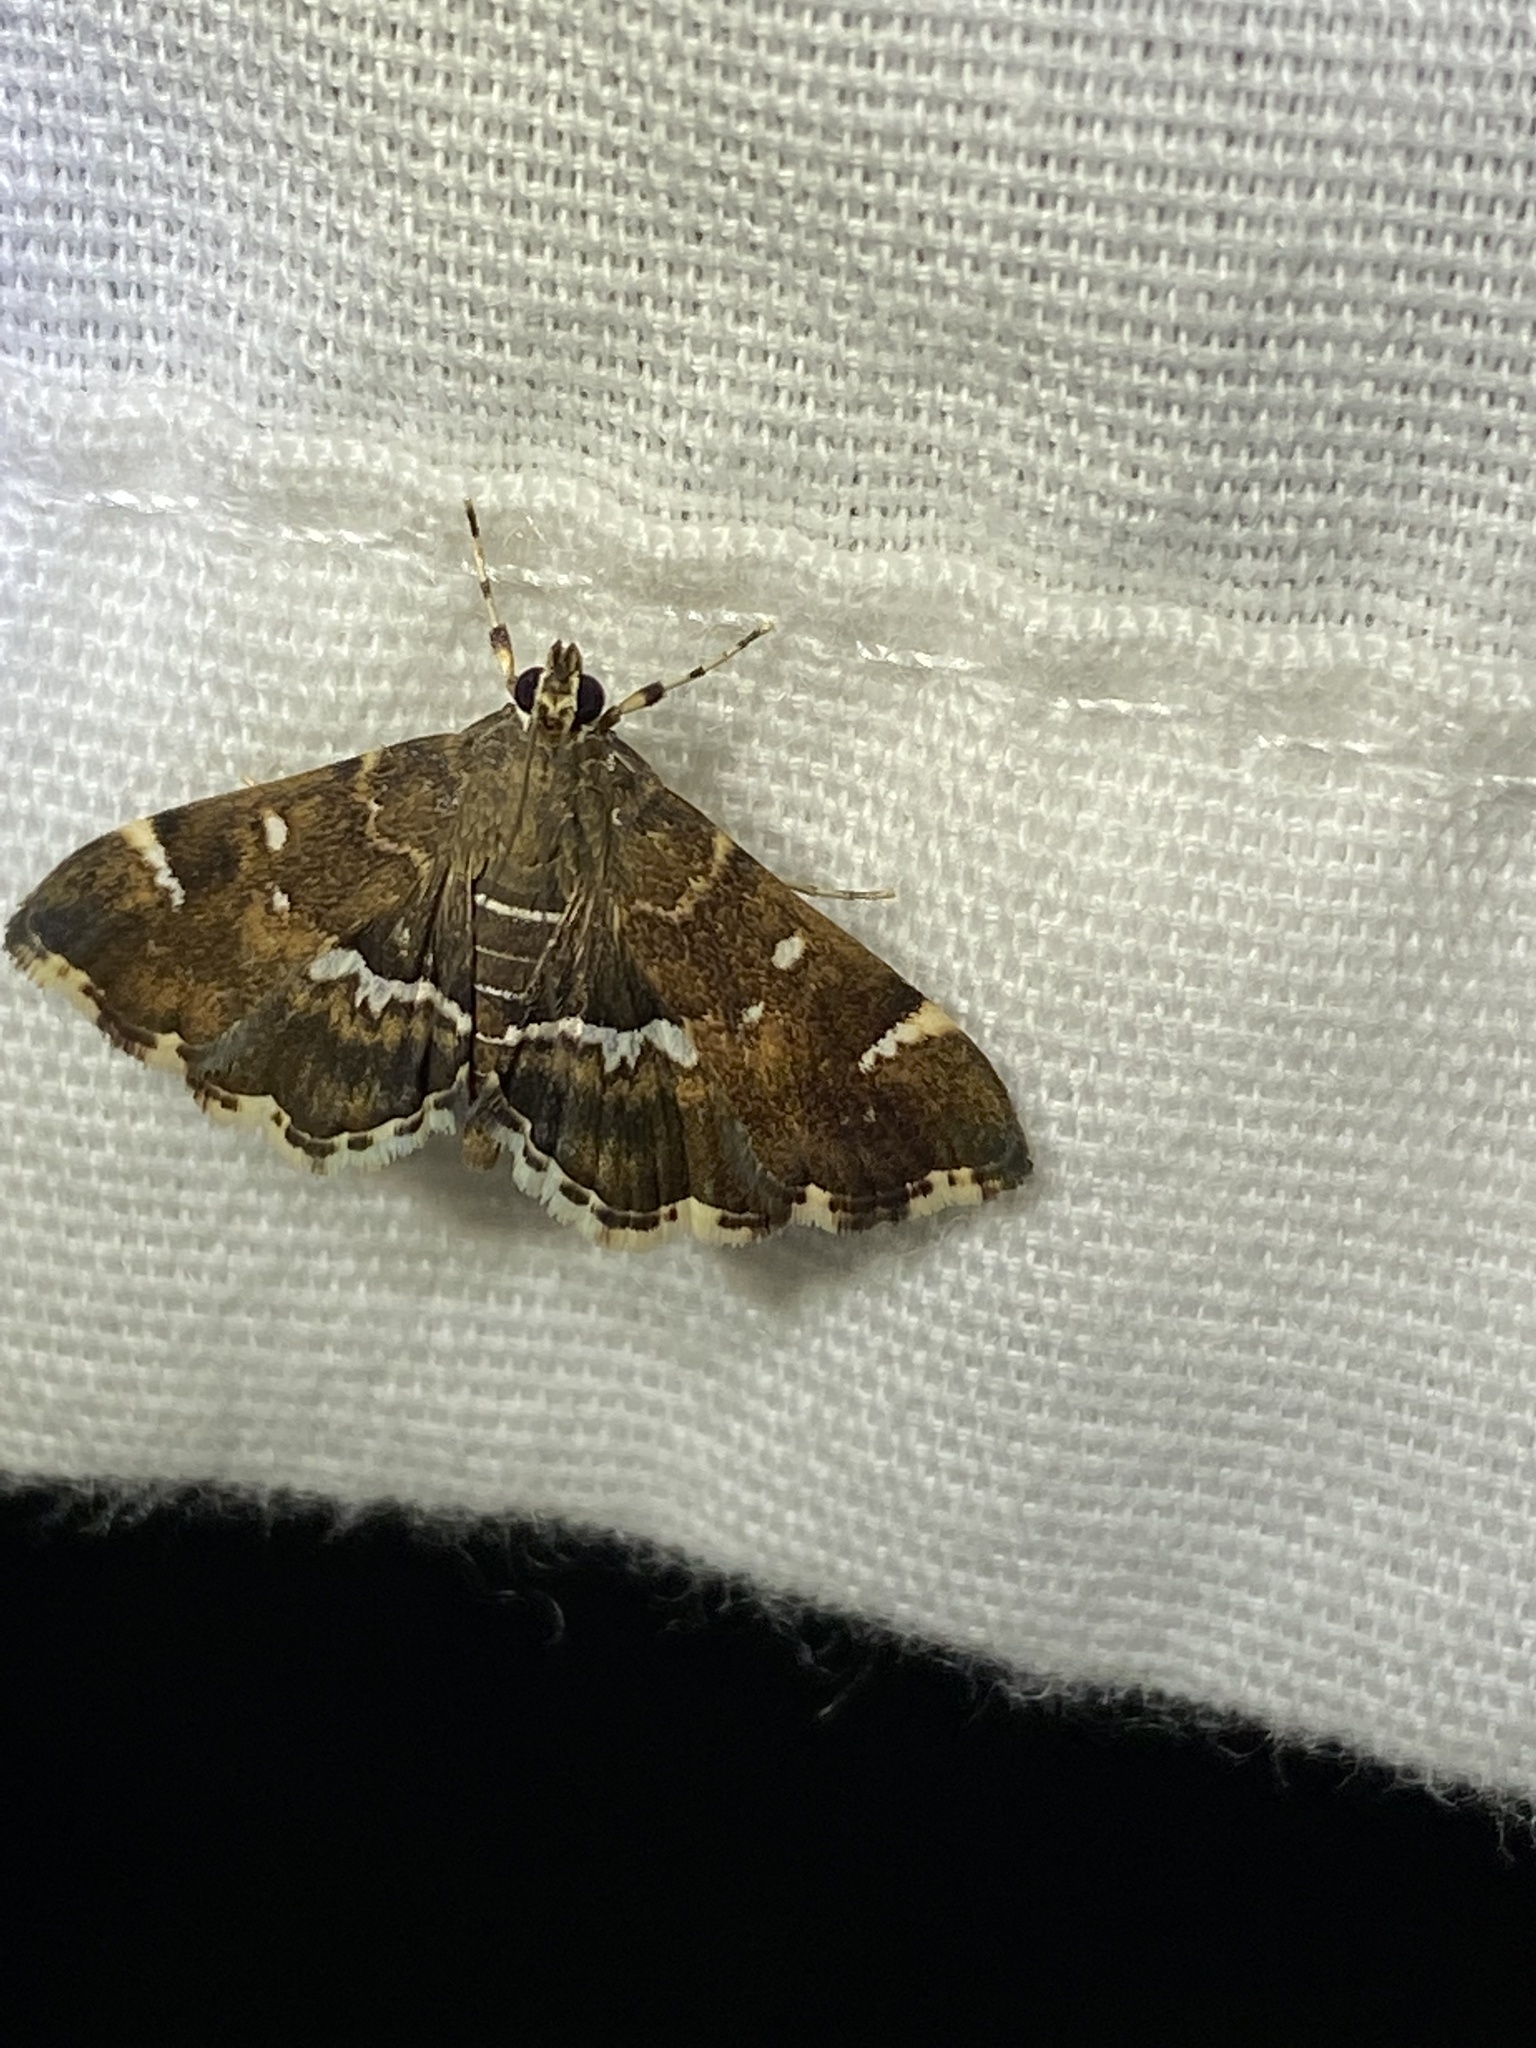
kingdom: Animalia
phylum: Arthropoda
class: Insecta
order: Lepidoptera
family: Crambidae
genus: Hymenia
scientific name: Hymenia perspectalis
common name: Spotted beet webworm
